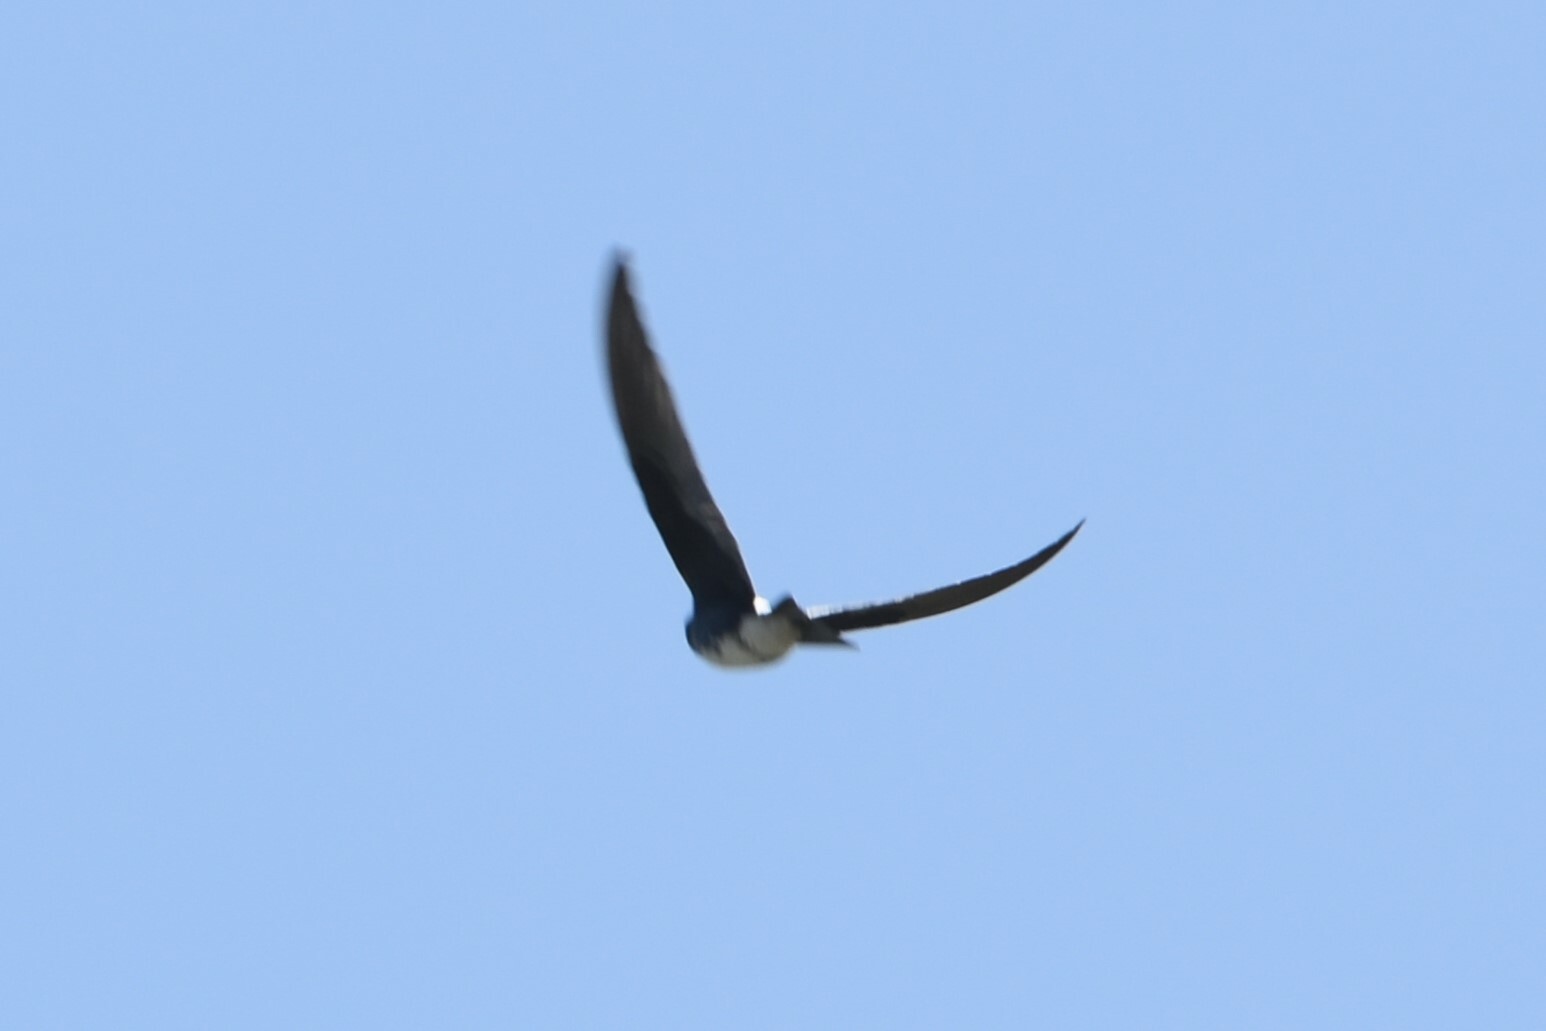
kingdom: Animalia
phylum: Chordata
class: Aves
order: Passeriformes
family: Hirundinidae
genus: Progne
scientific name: Progne dominicensis
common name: Caribbean martin
